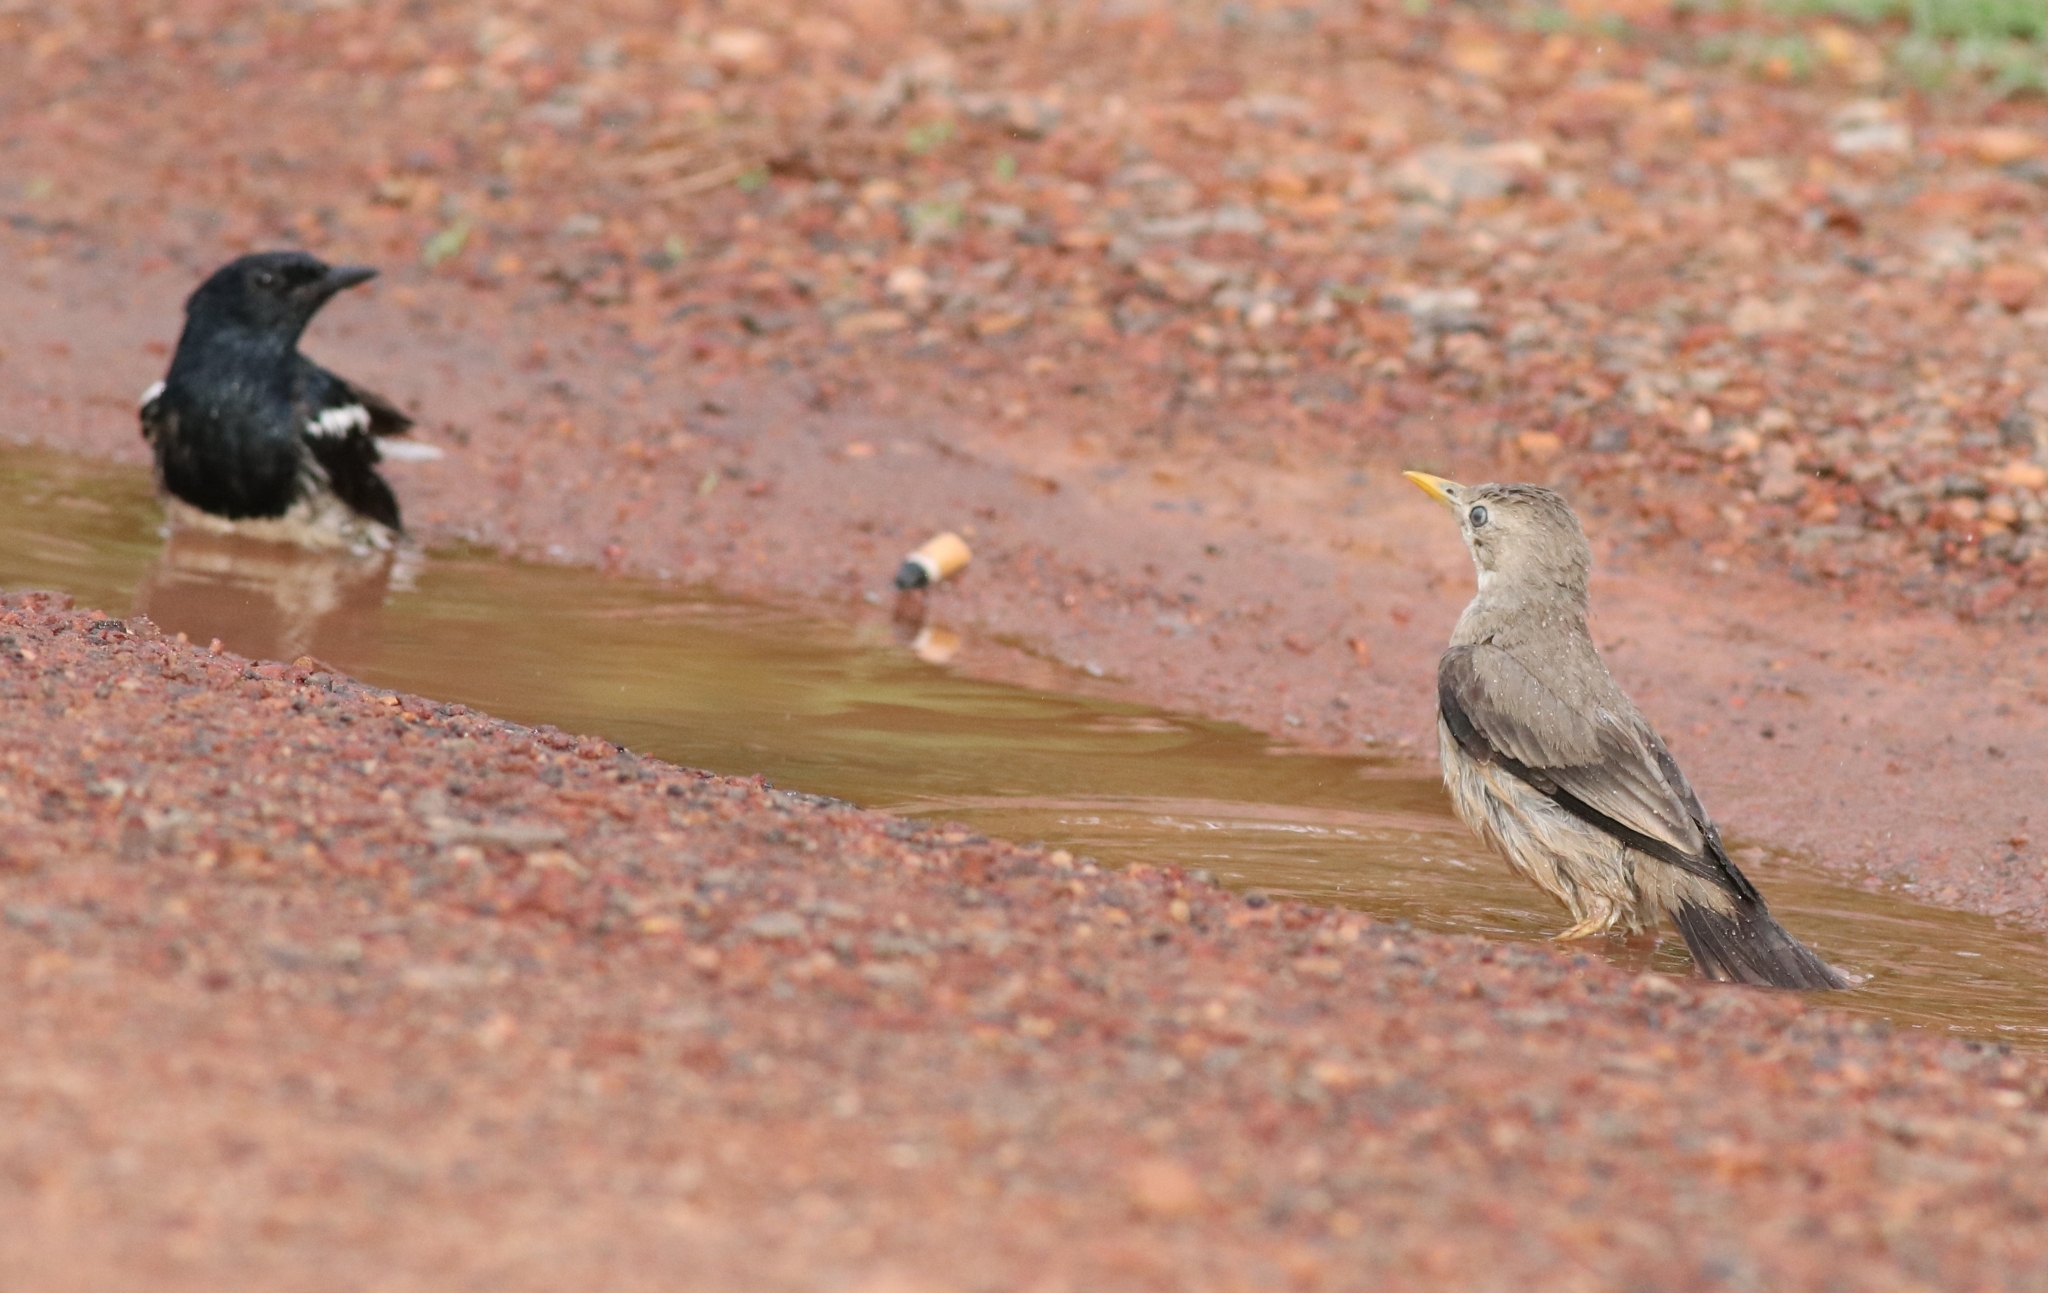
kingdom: Animalia
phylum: Chordata
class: Aves
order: Passeriformes
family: Muscicapidae
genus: Copsychus
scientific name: Copsychus saularis
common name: Oriental magpie-robin
